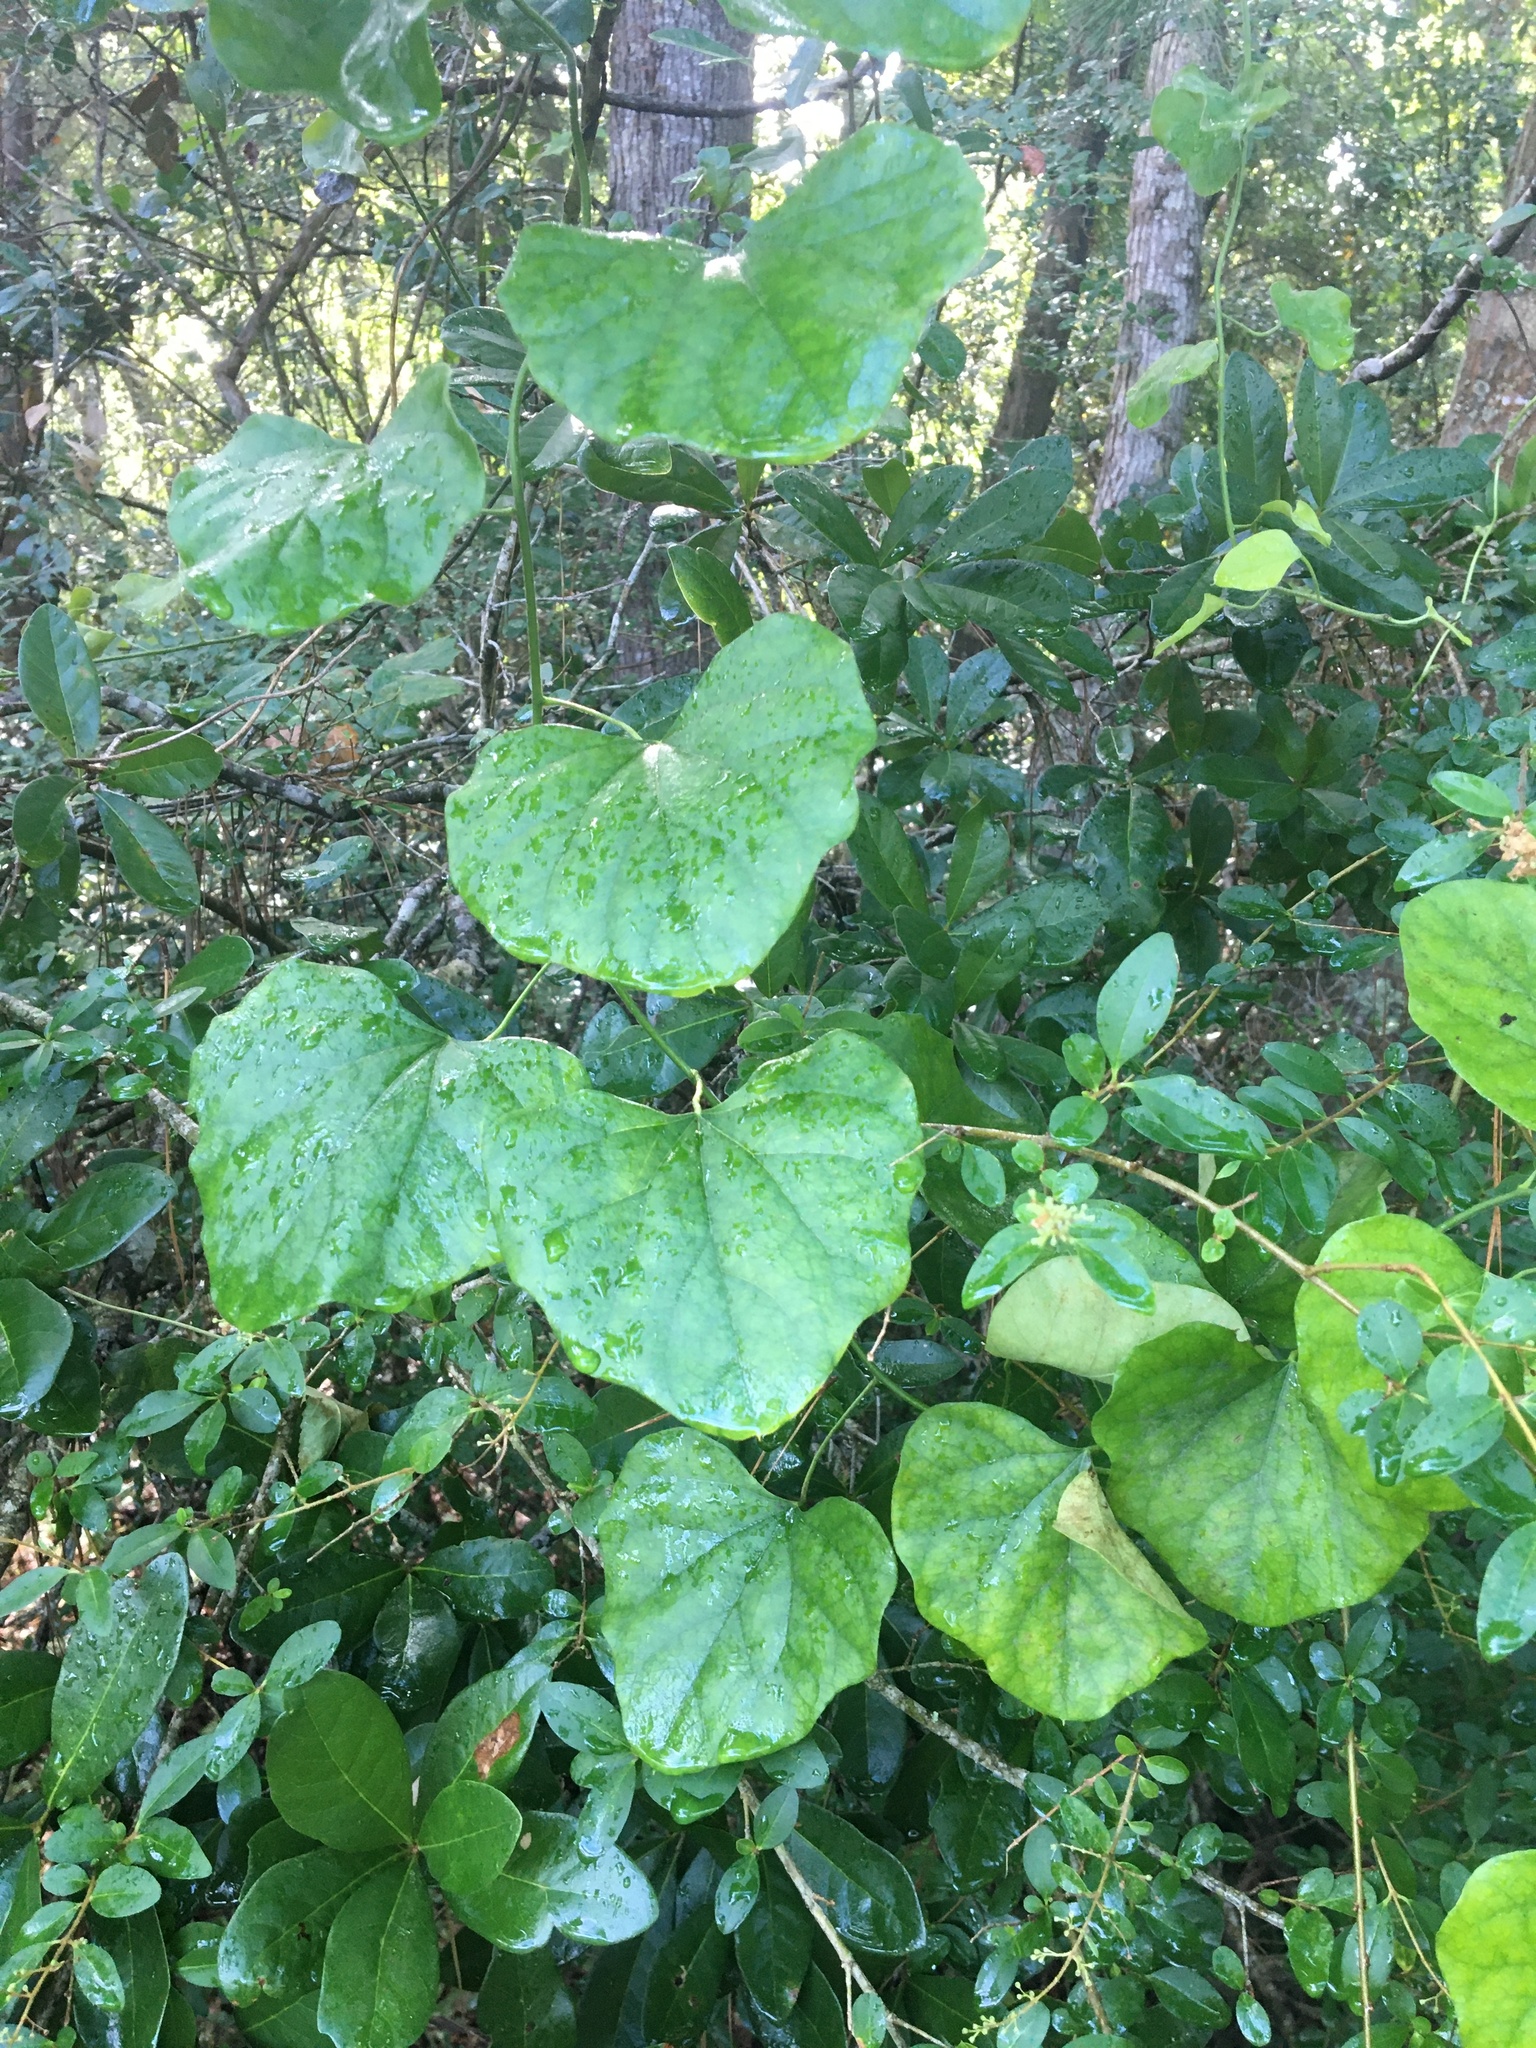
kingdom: Plantae
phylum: Tracheophyta
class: Magnoliopsida
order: Ranunculales
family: Menispermaceae
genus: Cocculus
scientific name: Cocculus carolinus
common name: Carolina moonseed
